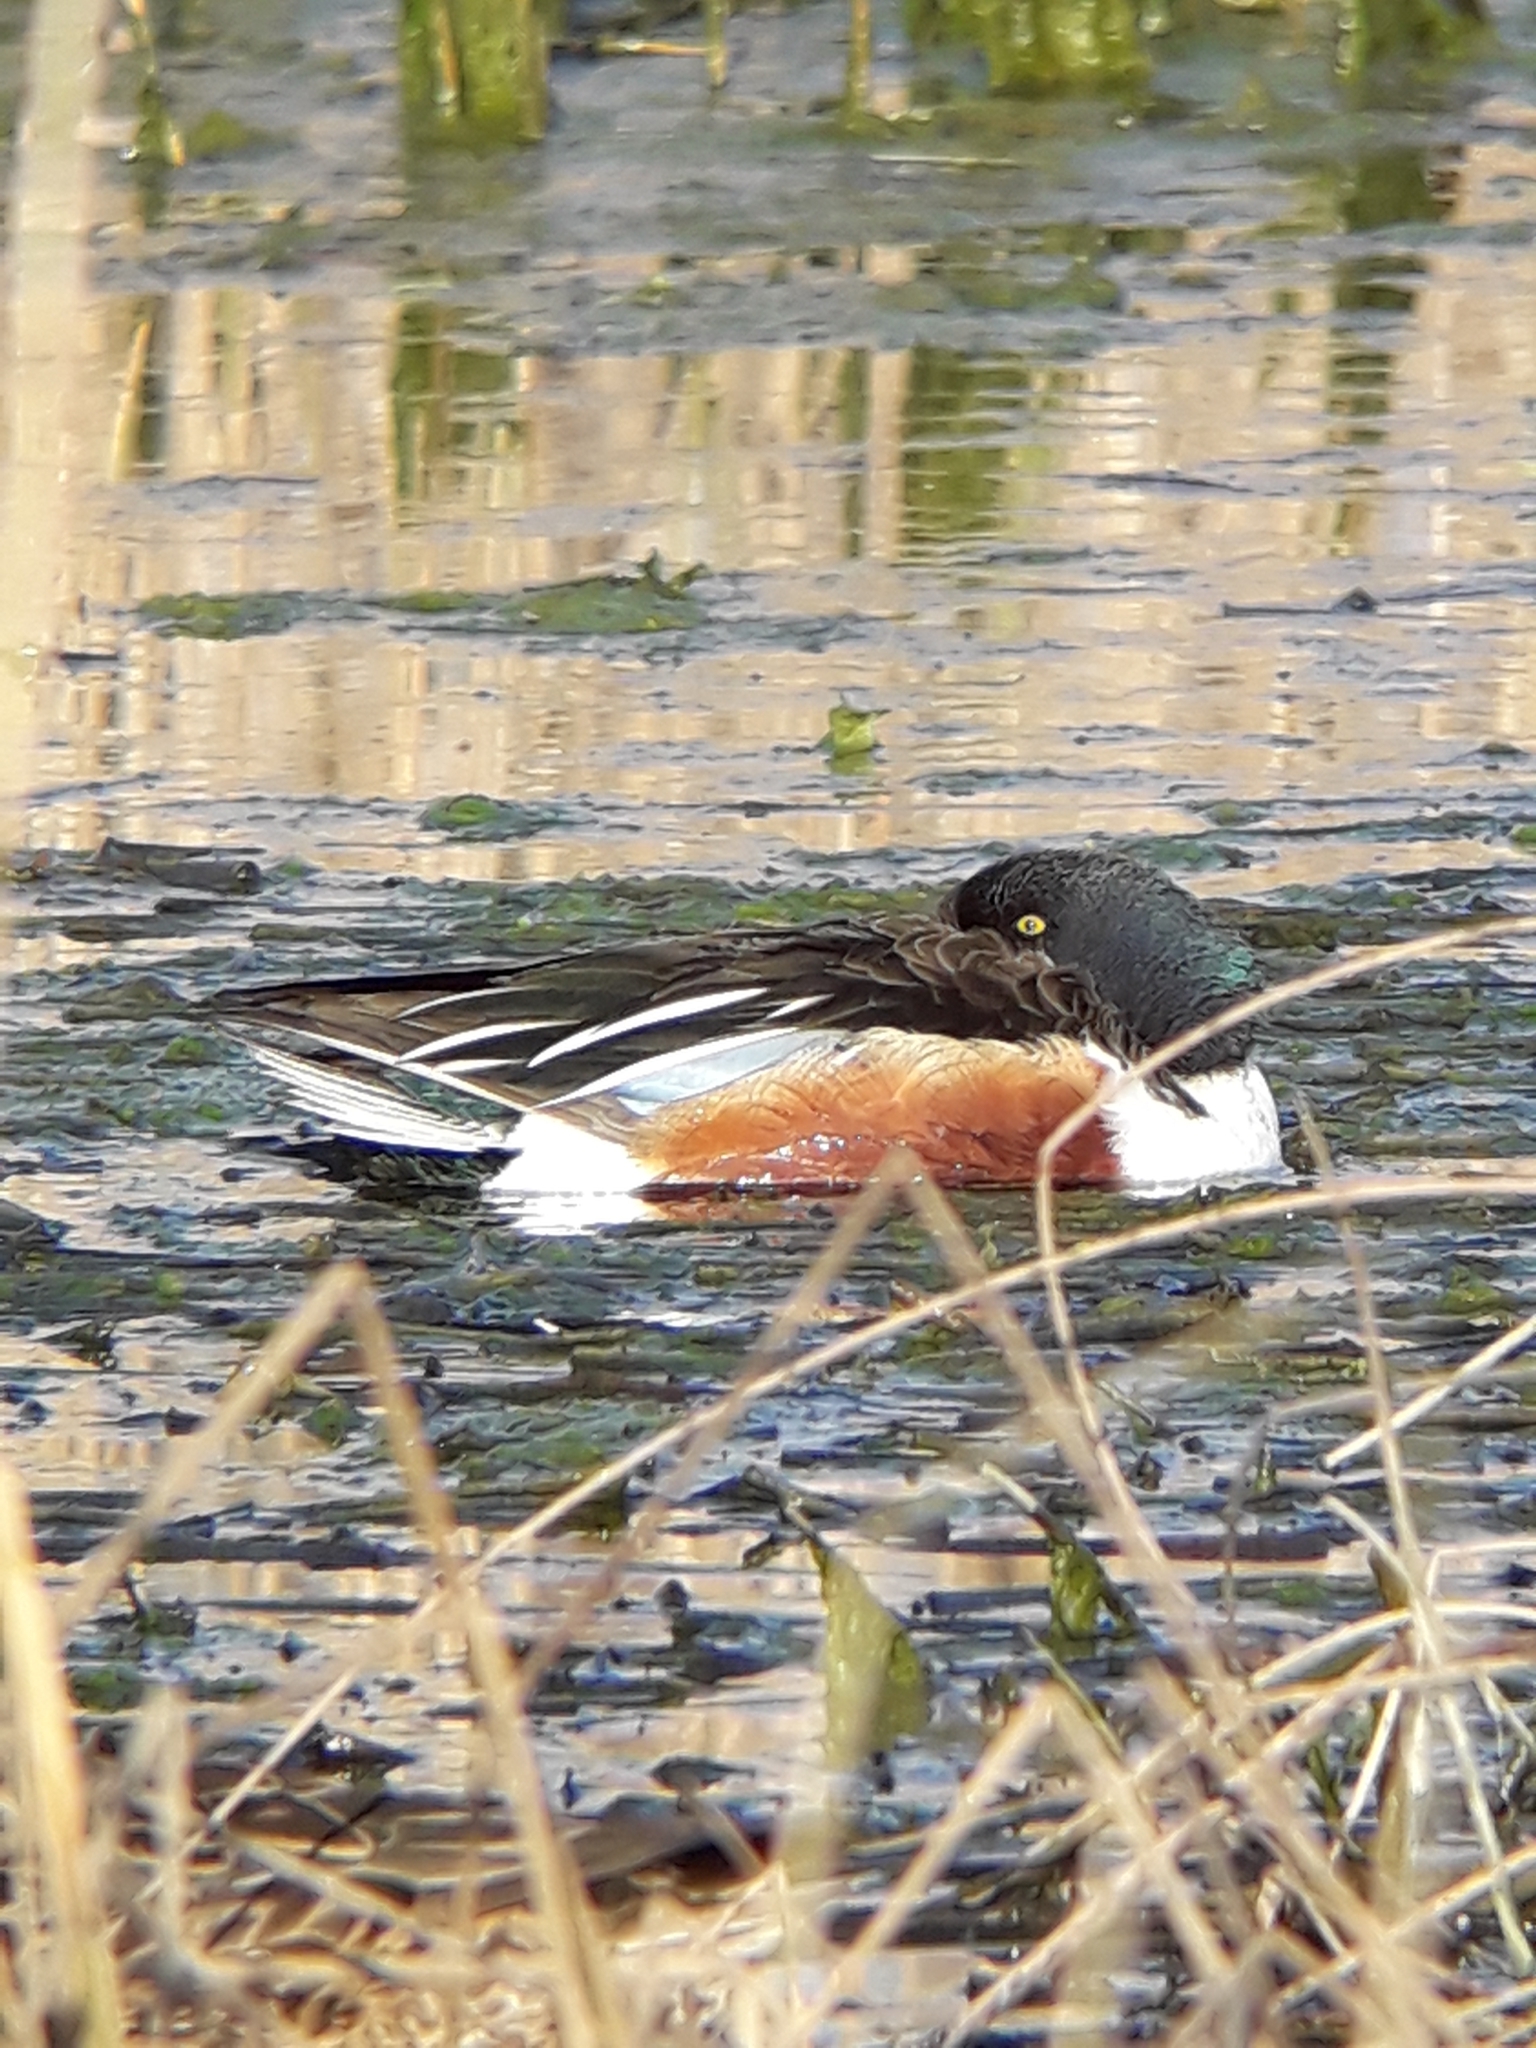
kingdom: Animalia
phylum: Chordata
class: Aves
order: Anseriformes
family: Anatidae
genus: Spatula
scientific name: Spatula clypeata
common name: Northern shoveler
